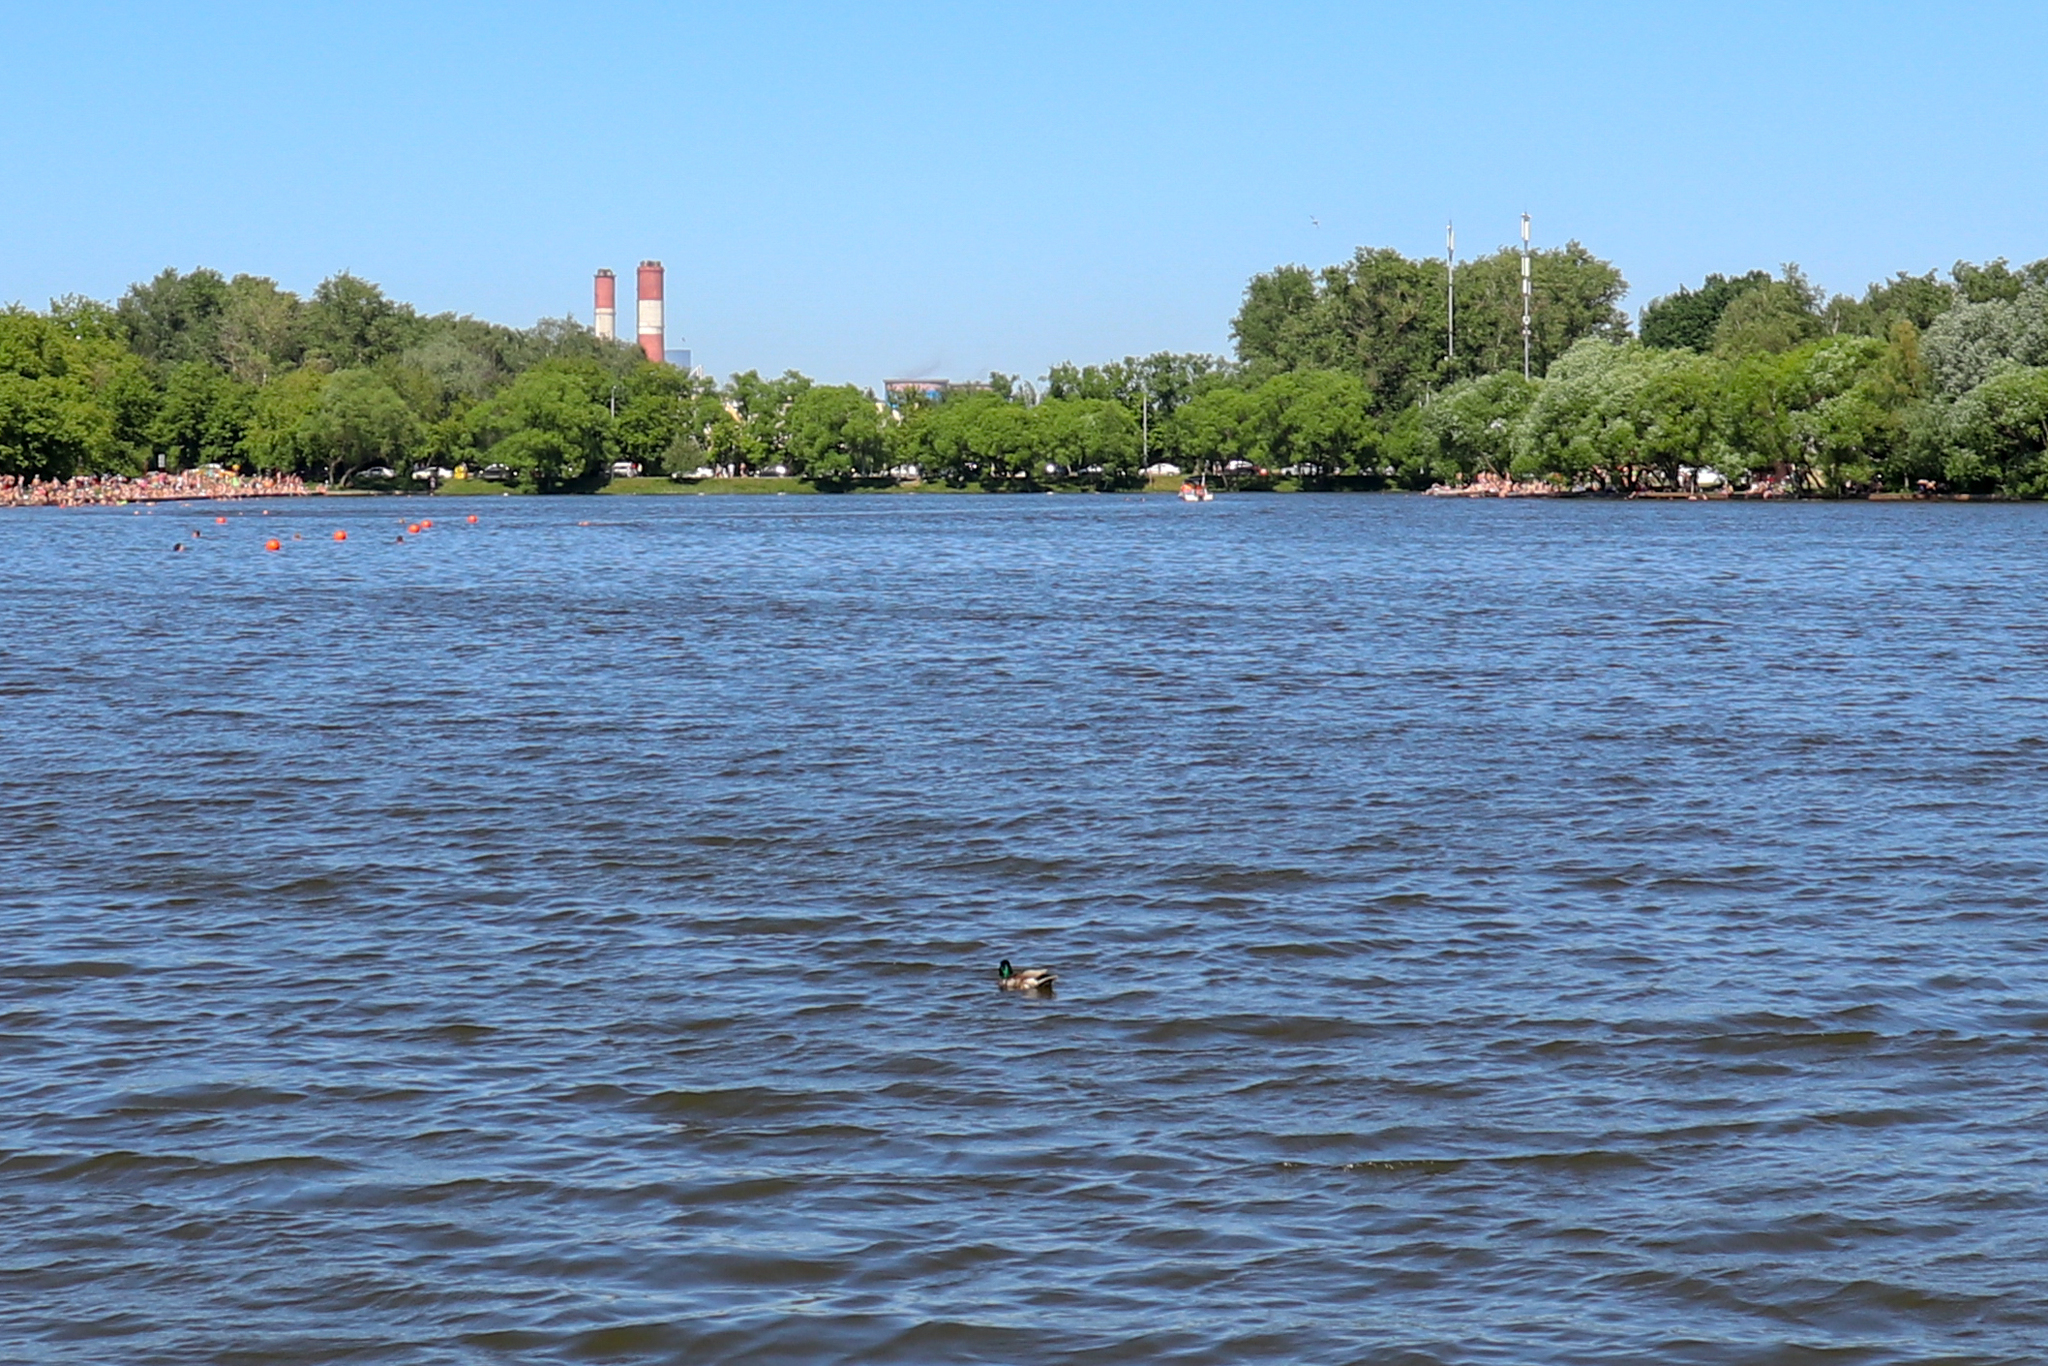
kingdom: Animalia
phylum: Chordata
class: Aves
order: Anseriformes
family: Anatidae
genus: Anas
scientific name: Anas platyrhynchos
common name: Mallard
